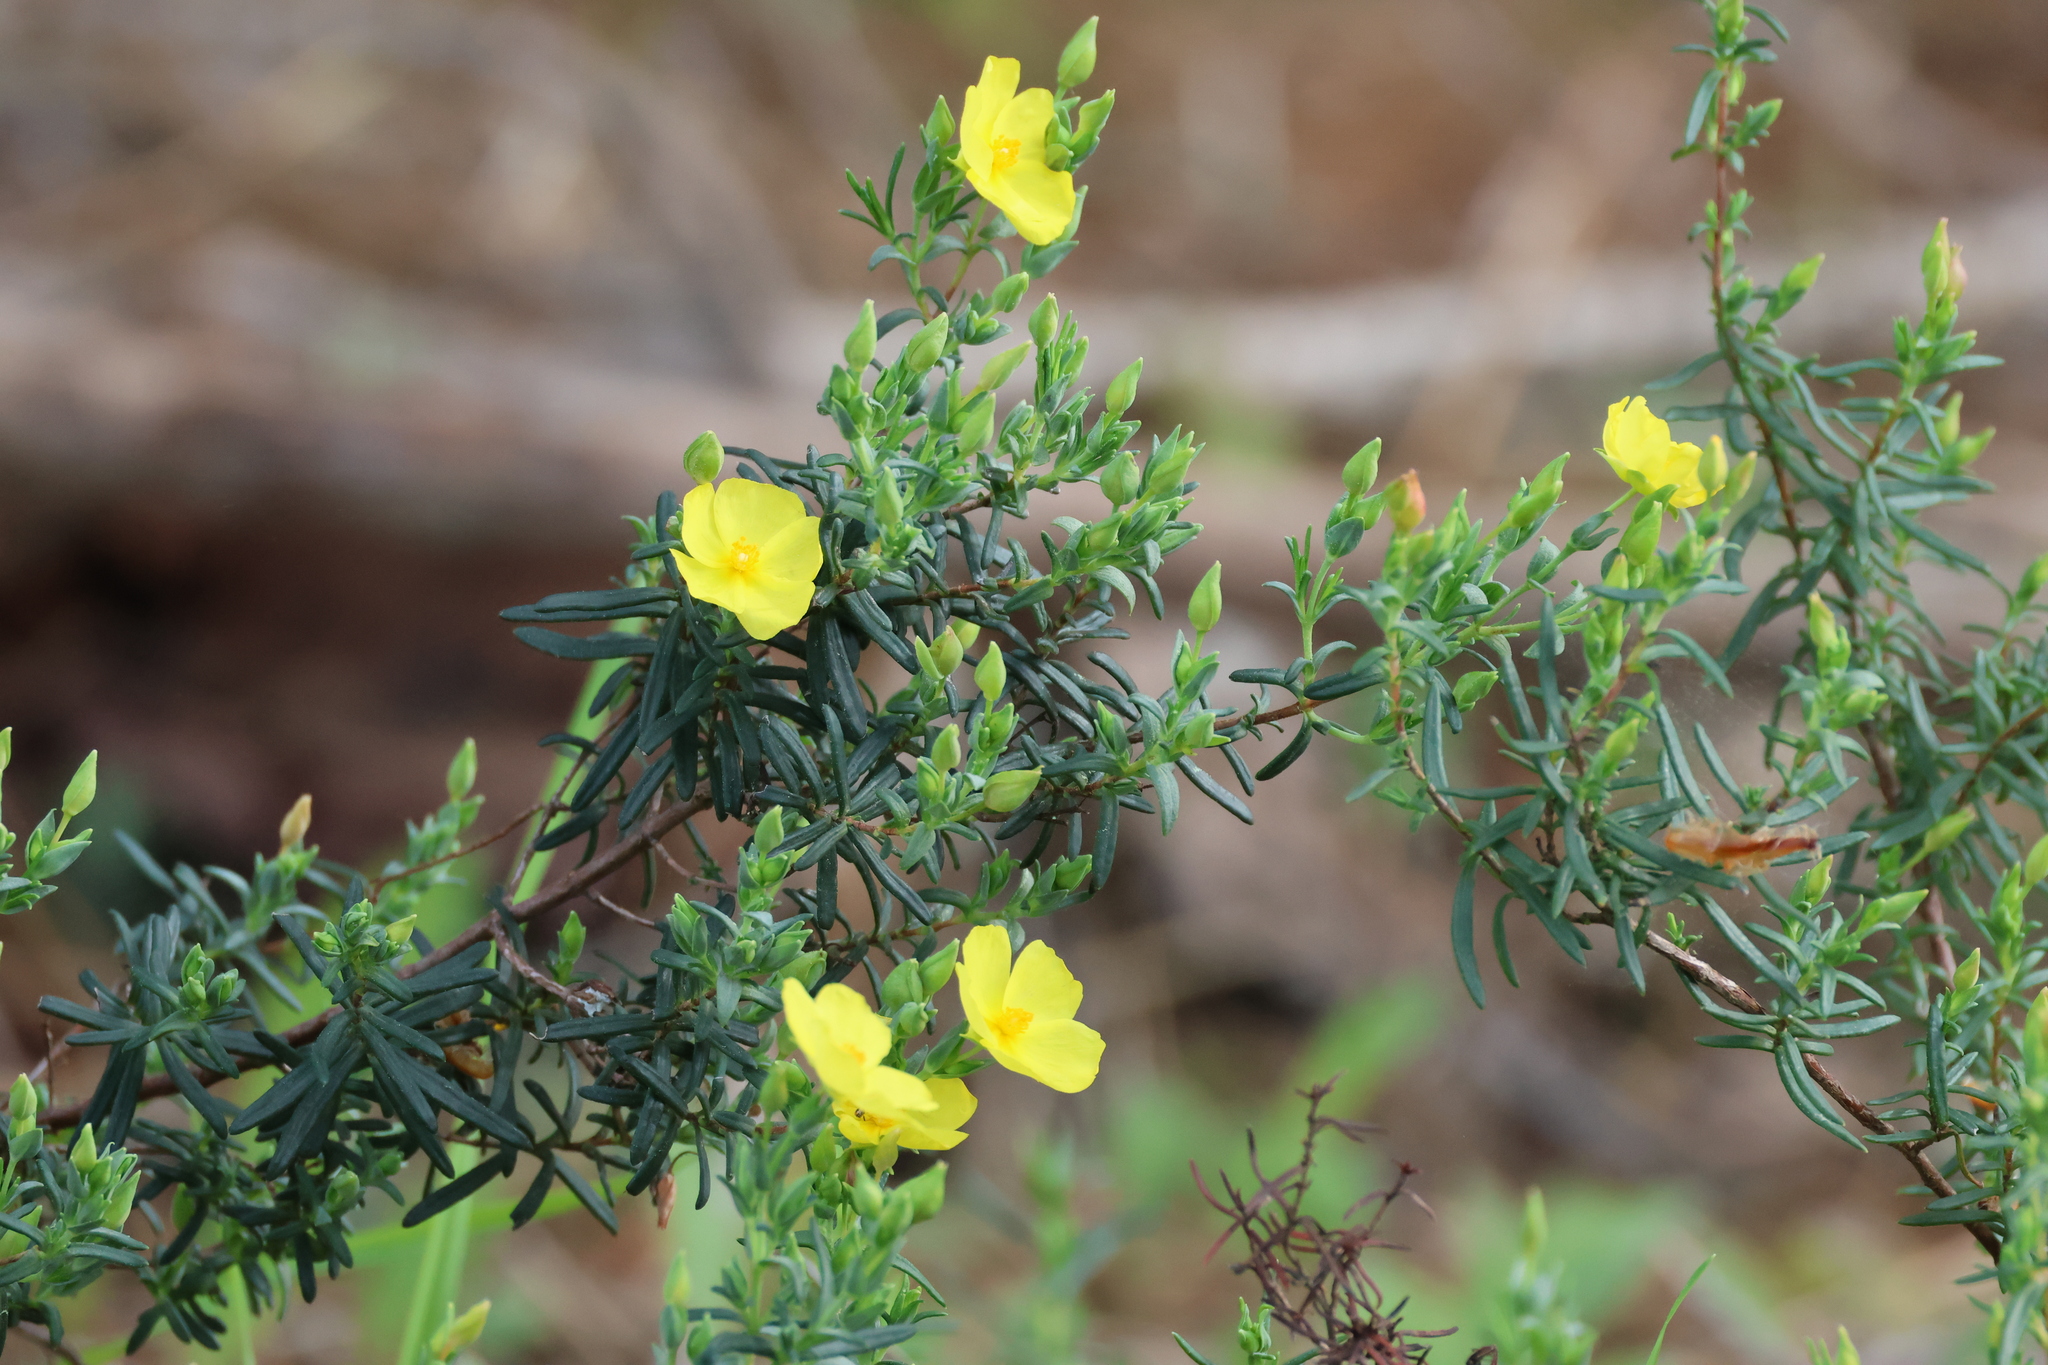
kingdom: Plantae
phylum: Tracheophyta
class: Magnoliopsida
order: Malvales
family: Cistaceae
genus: Halimium
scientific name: Halimium calycinum
